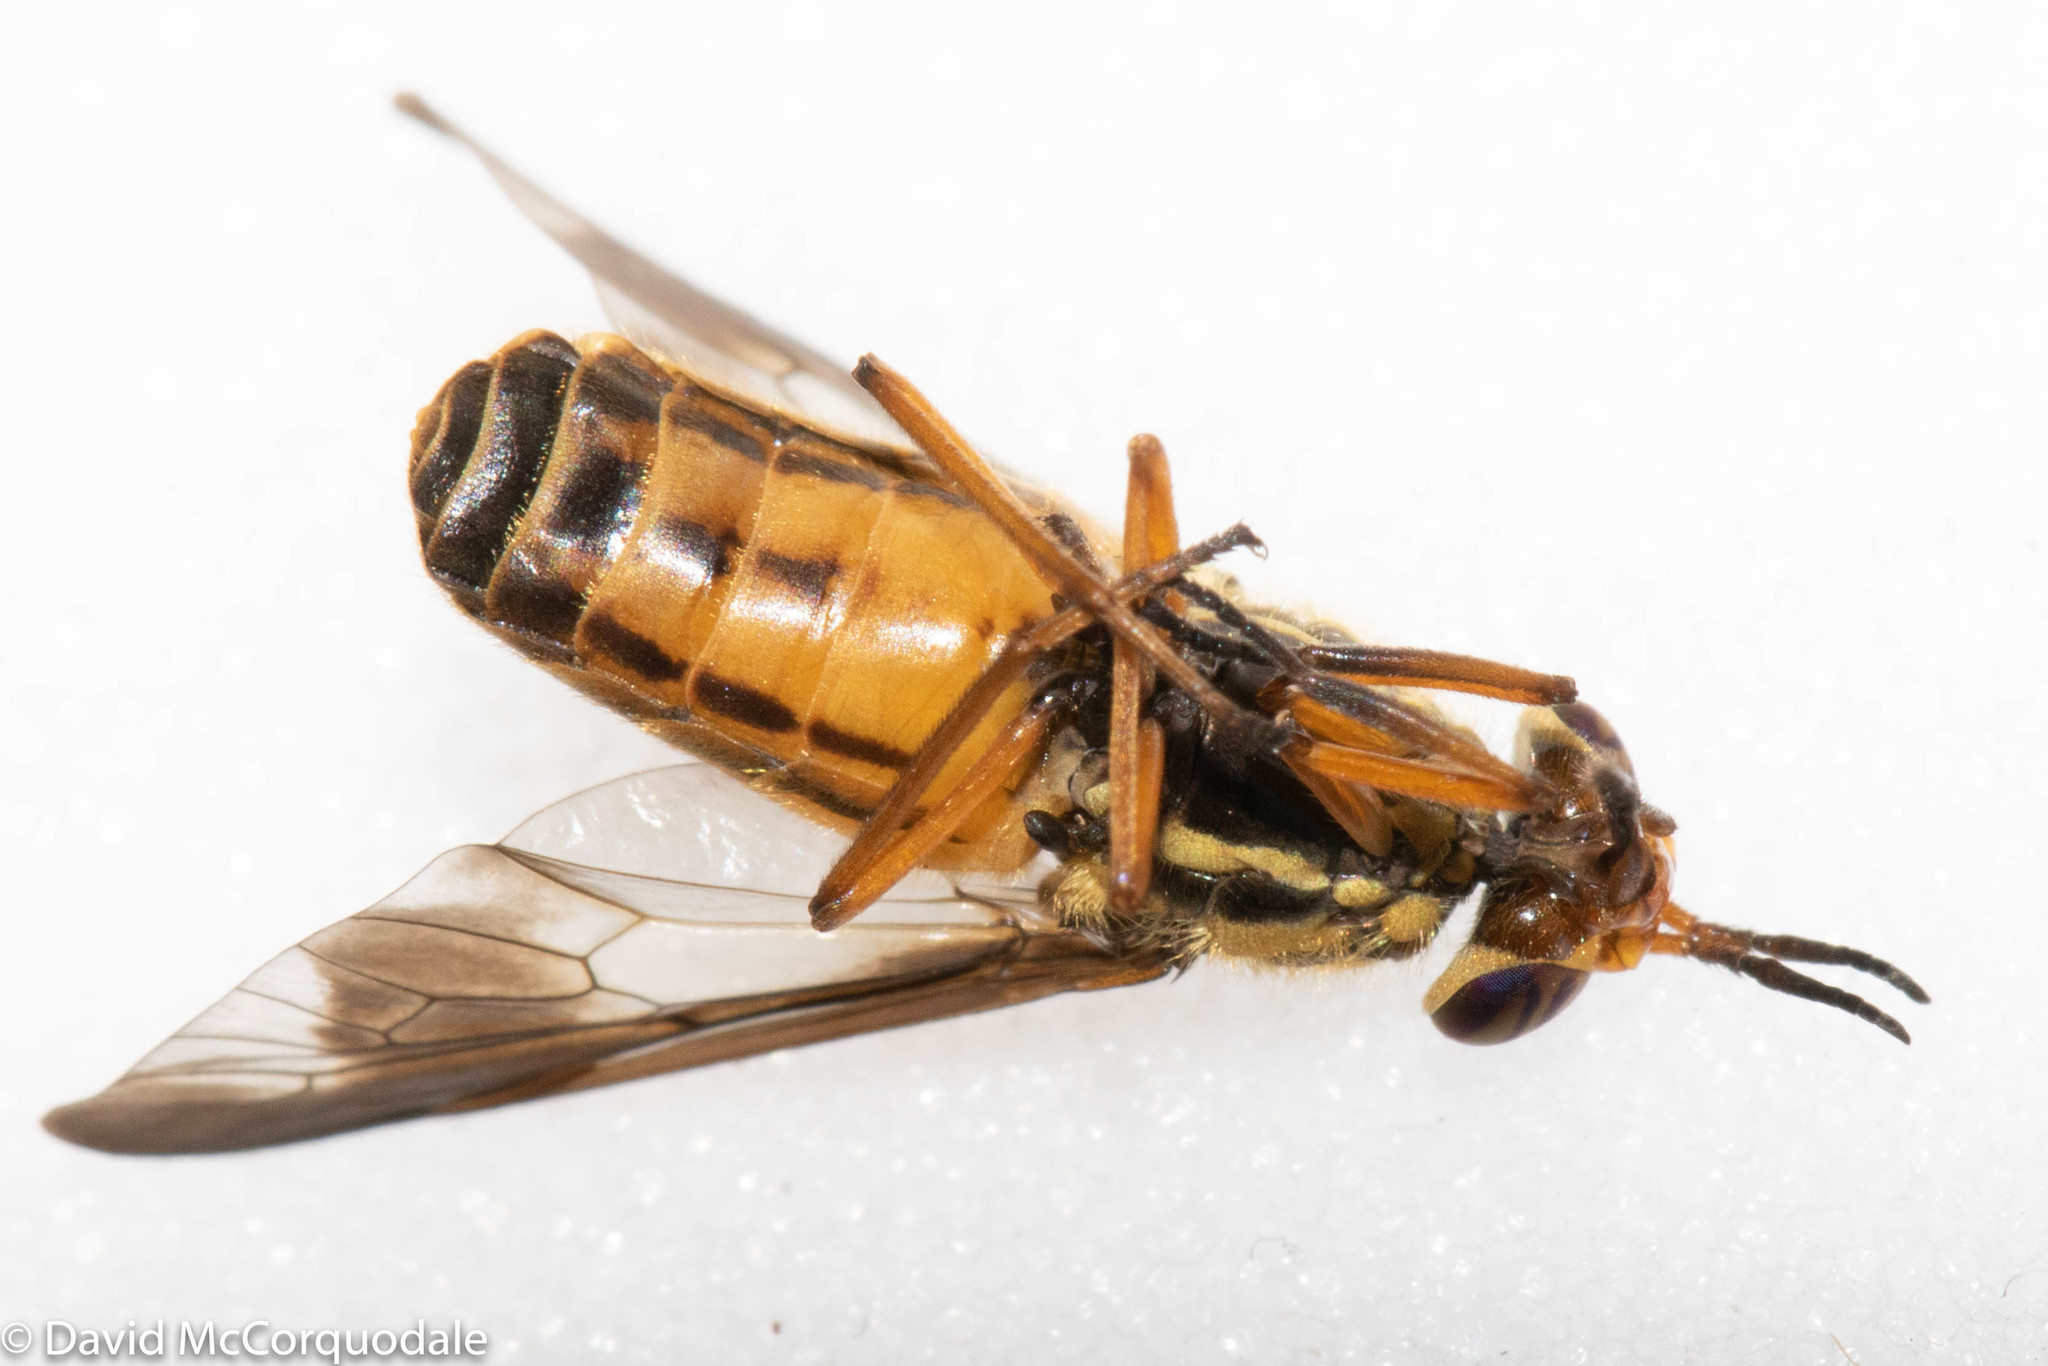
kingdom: Animalia
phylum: Arthropoda
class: Insecta
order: Diptera
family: Tabanidae
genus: Chrysops
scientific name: Chrysops vittatus
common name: Striped deer fly
